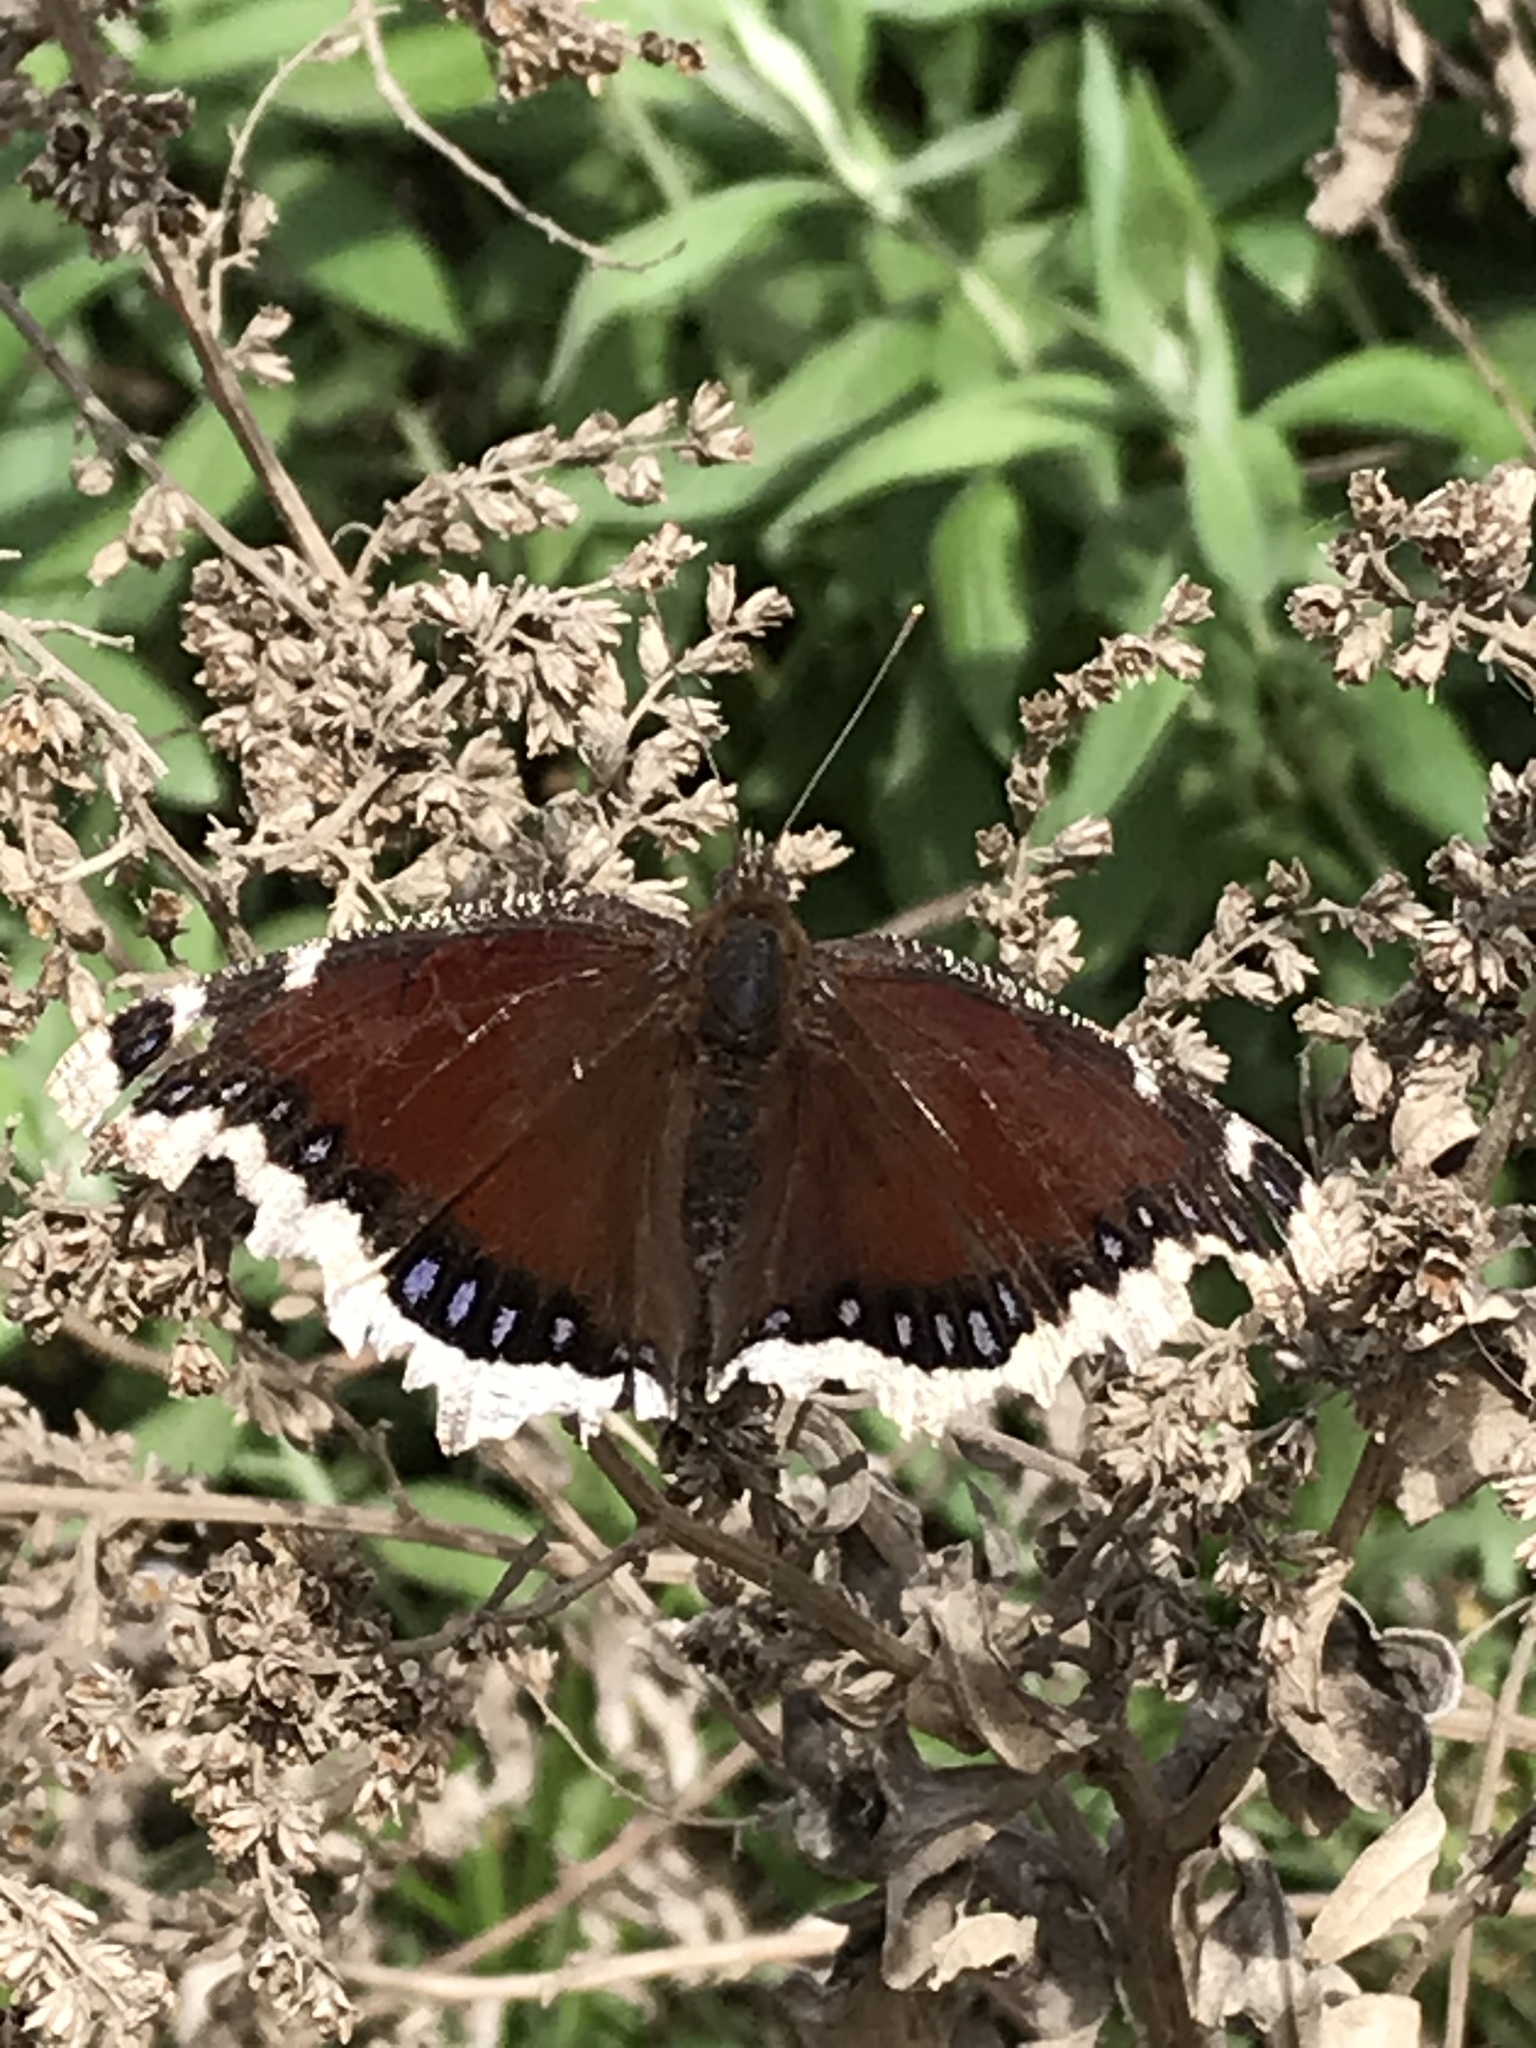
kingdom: Animalia
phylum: Arthropoda
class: Insecta
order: Lepidoptera
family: Nymphalidae
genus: Nymphalis
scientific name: Nymphalis antiopa
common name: Camberwell beauty
